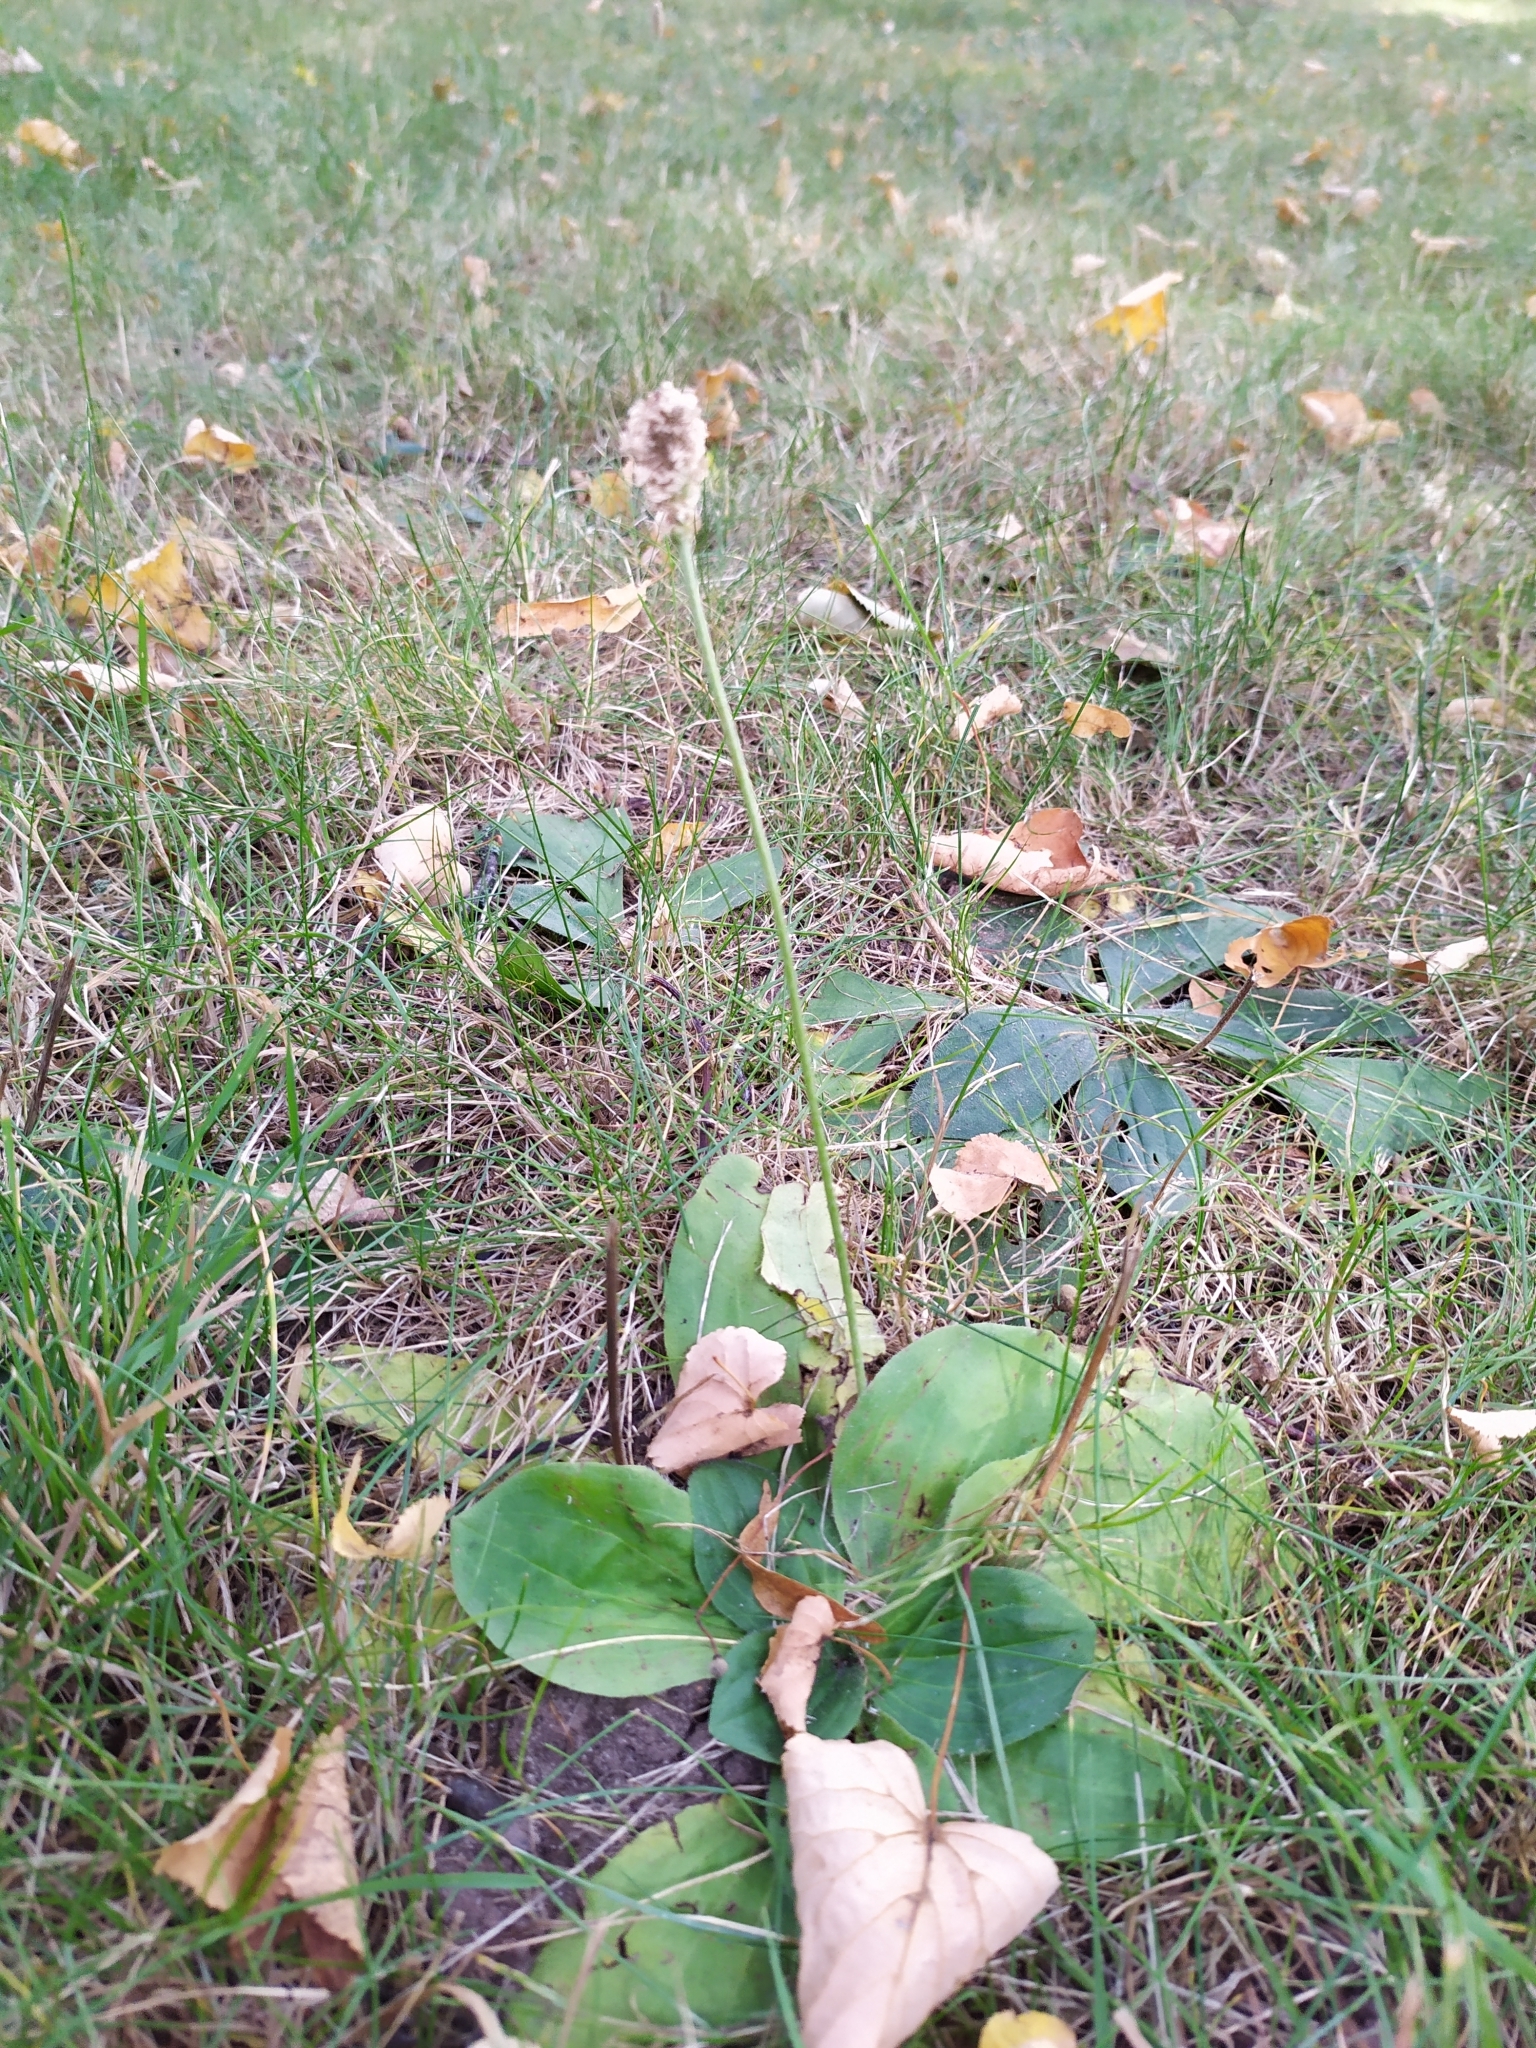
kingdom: Plantae
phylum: Tracheophyta
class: Magnoliopsida
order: Lamiales
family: Plantaginaceae
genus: Plantago
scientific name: Plantago media
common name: Hoary plantain
